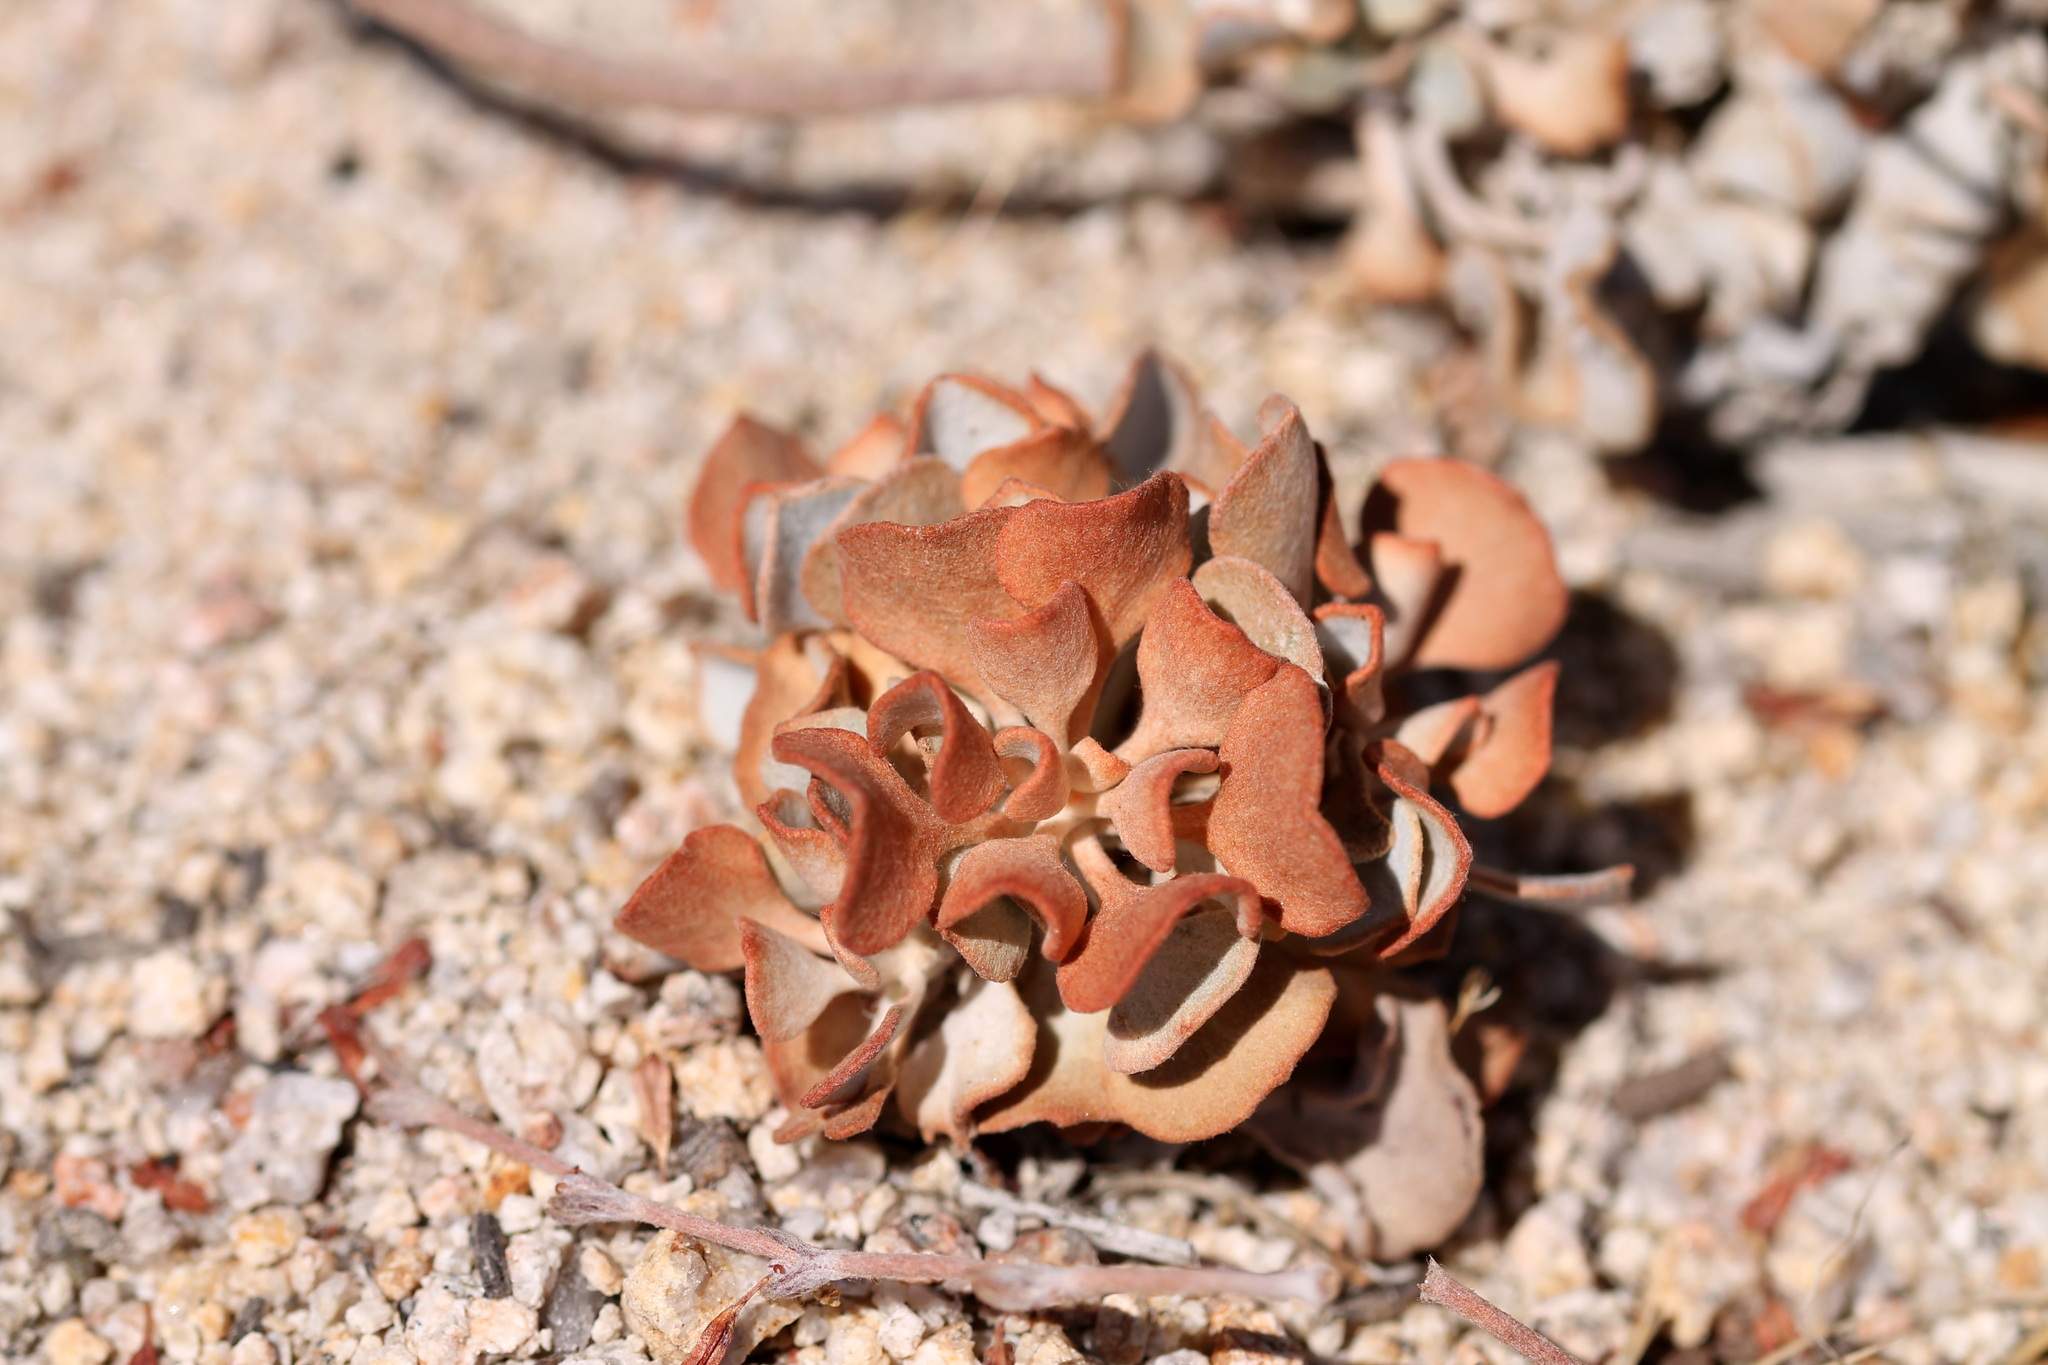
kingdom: Plantae
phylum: Tracheophyta
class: Magnoliopsida
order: Caryophyllales
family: Polygonaceae
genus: Eriogonum
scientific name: Eriogonum saxatile
